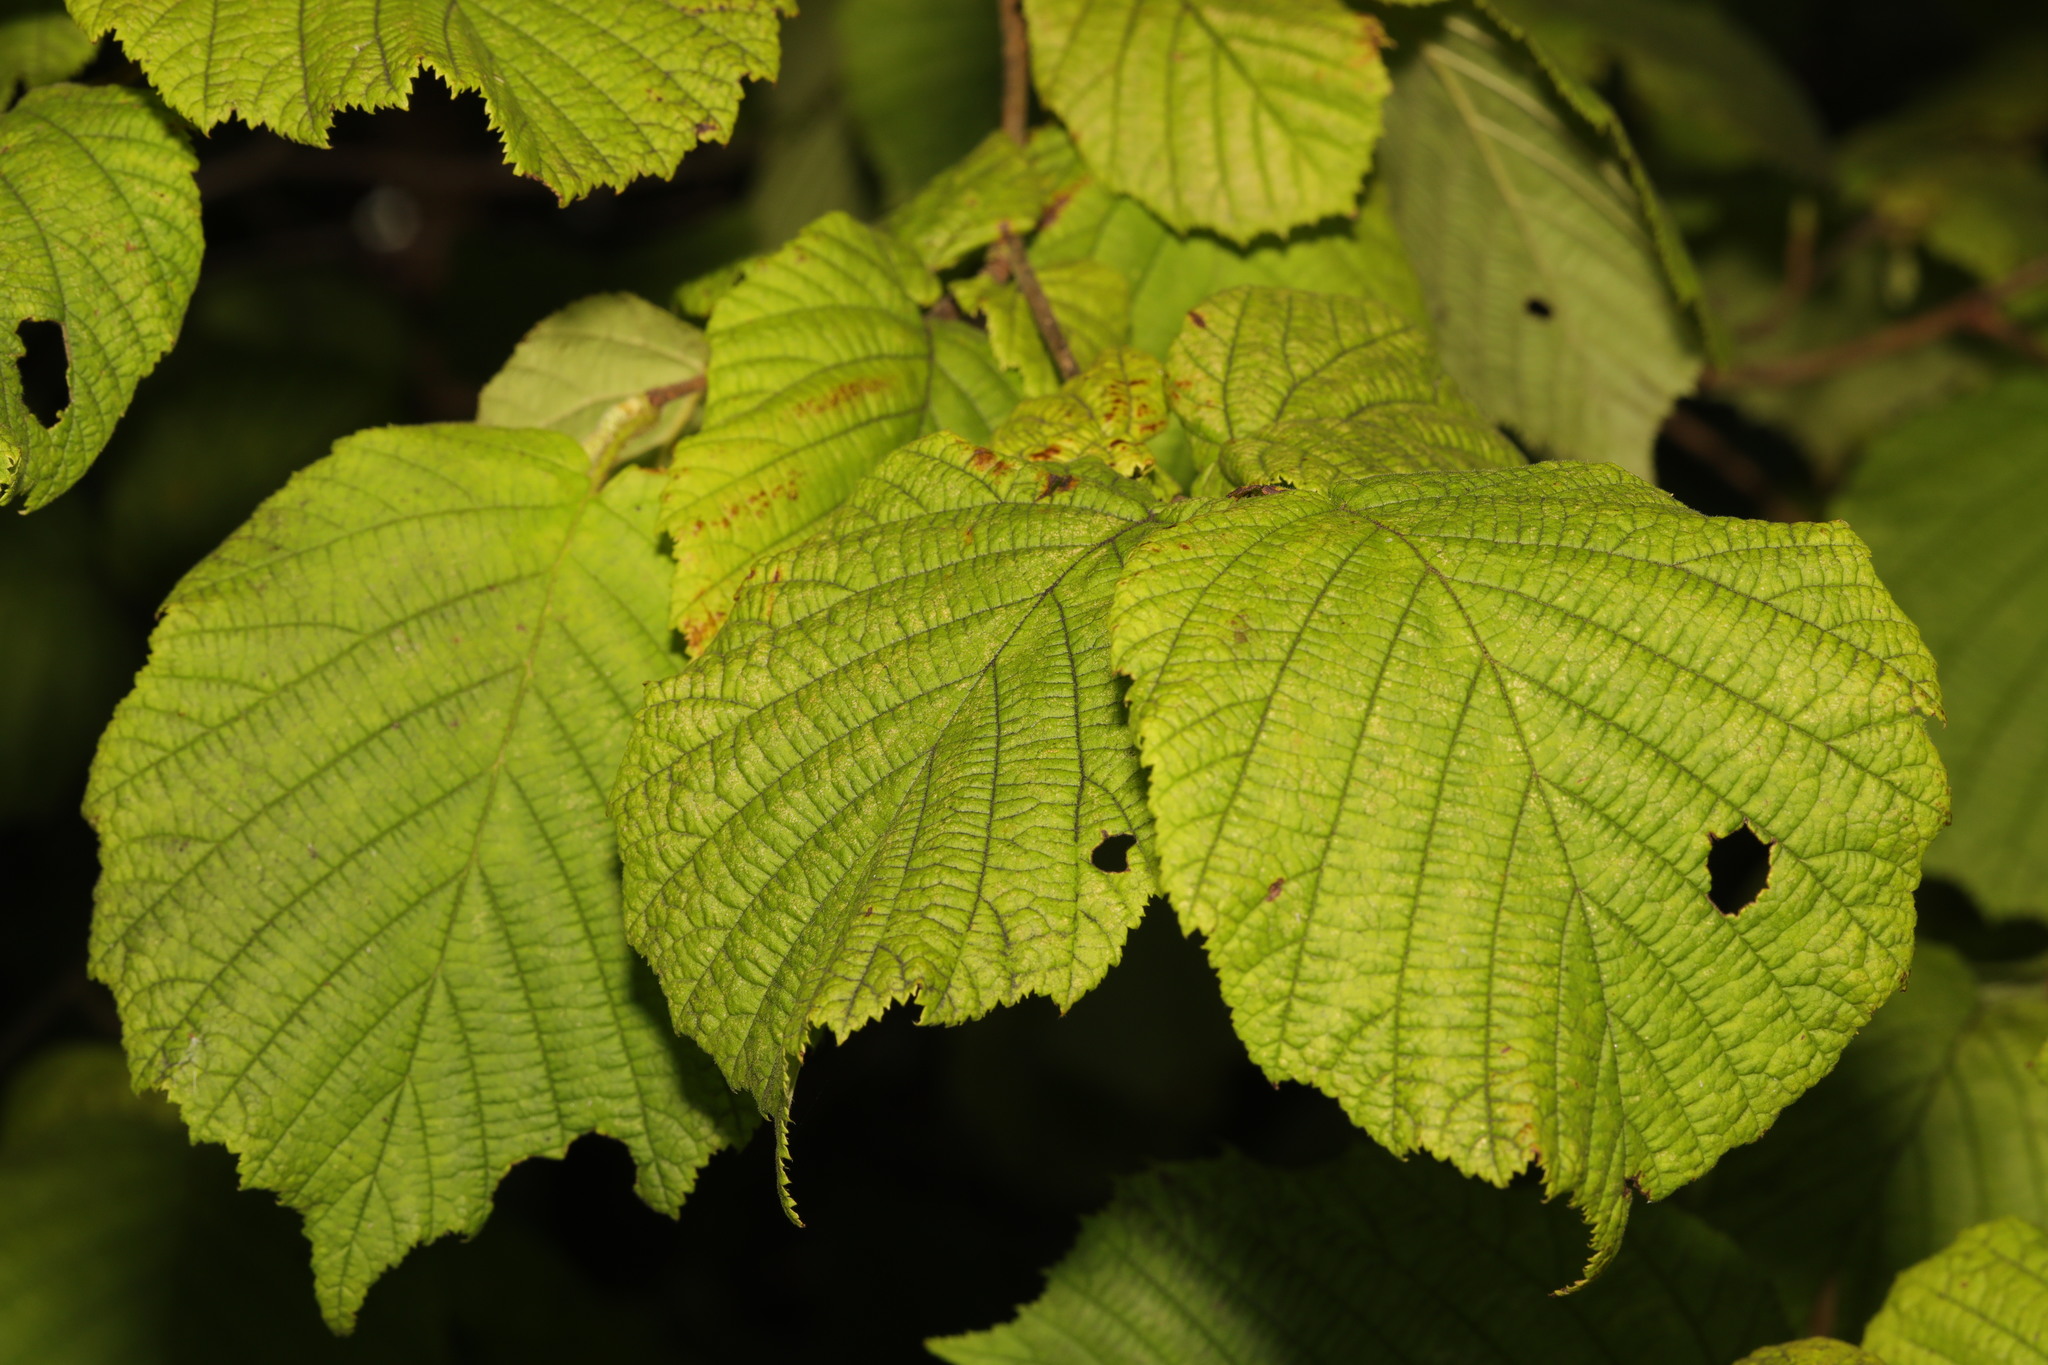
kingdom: Plantae
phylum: Tracheophyta
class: Magnoliopsida
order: Fagales
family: Betulaceae
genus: Corylus
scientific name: Corylus avellana
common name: European hazel
